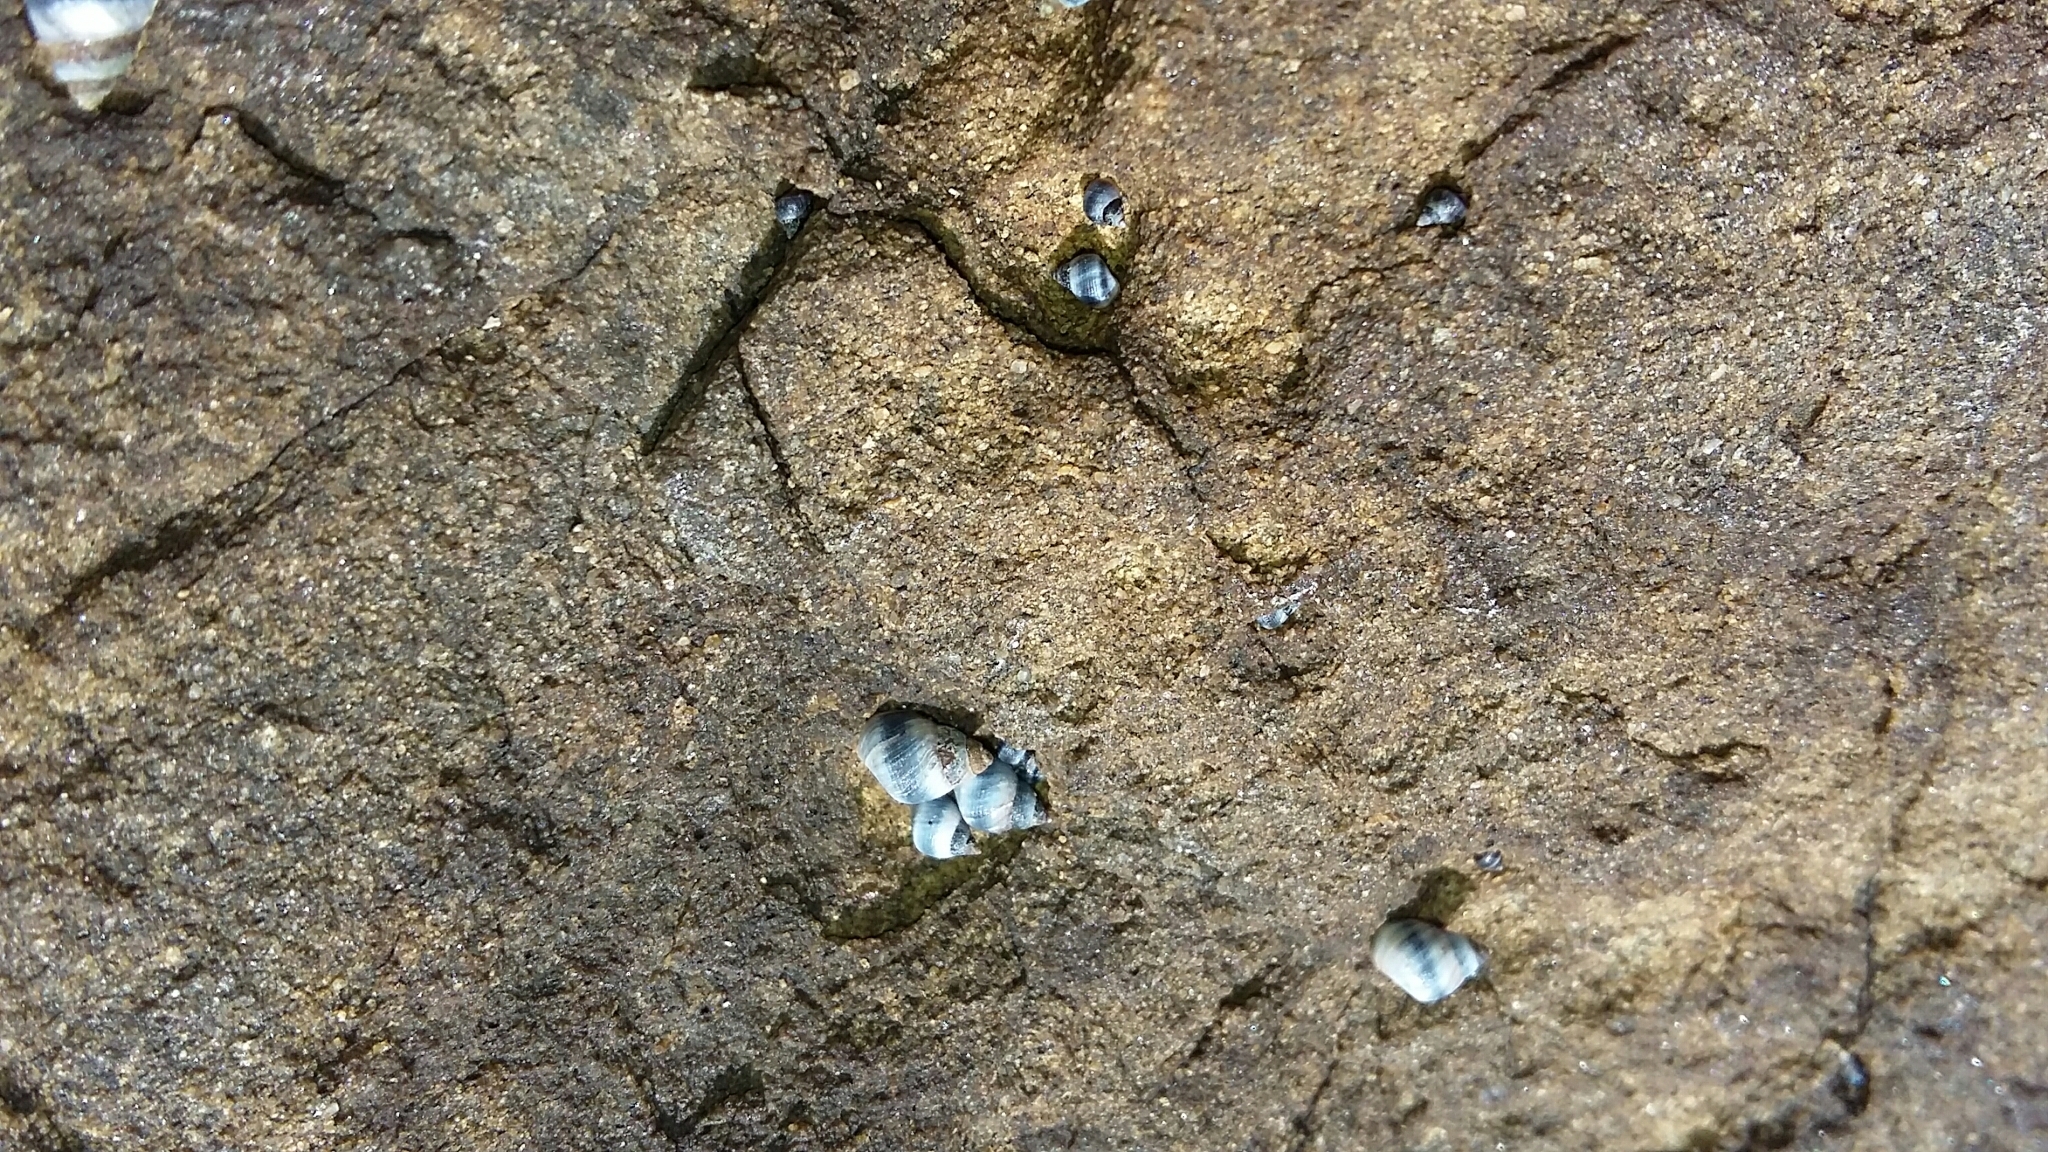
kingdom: Animalia
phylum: Mollusca
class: Gastropoda
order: Littorinimorpha
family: Littorinidae
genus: Austrolittorina
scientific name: Austrolittorina antipodum
